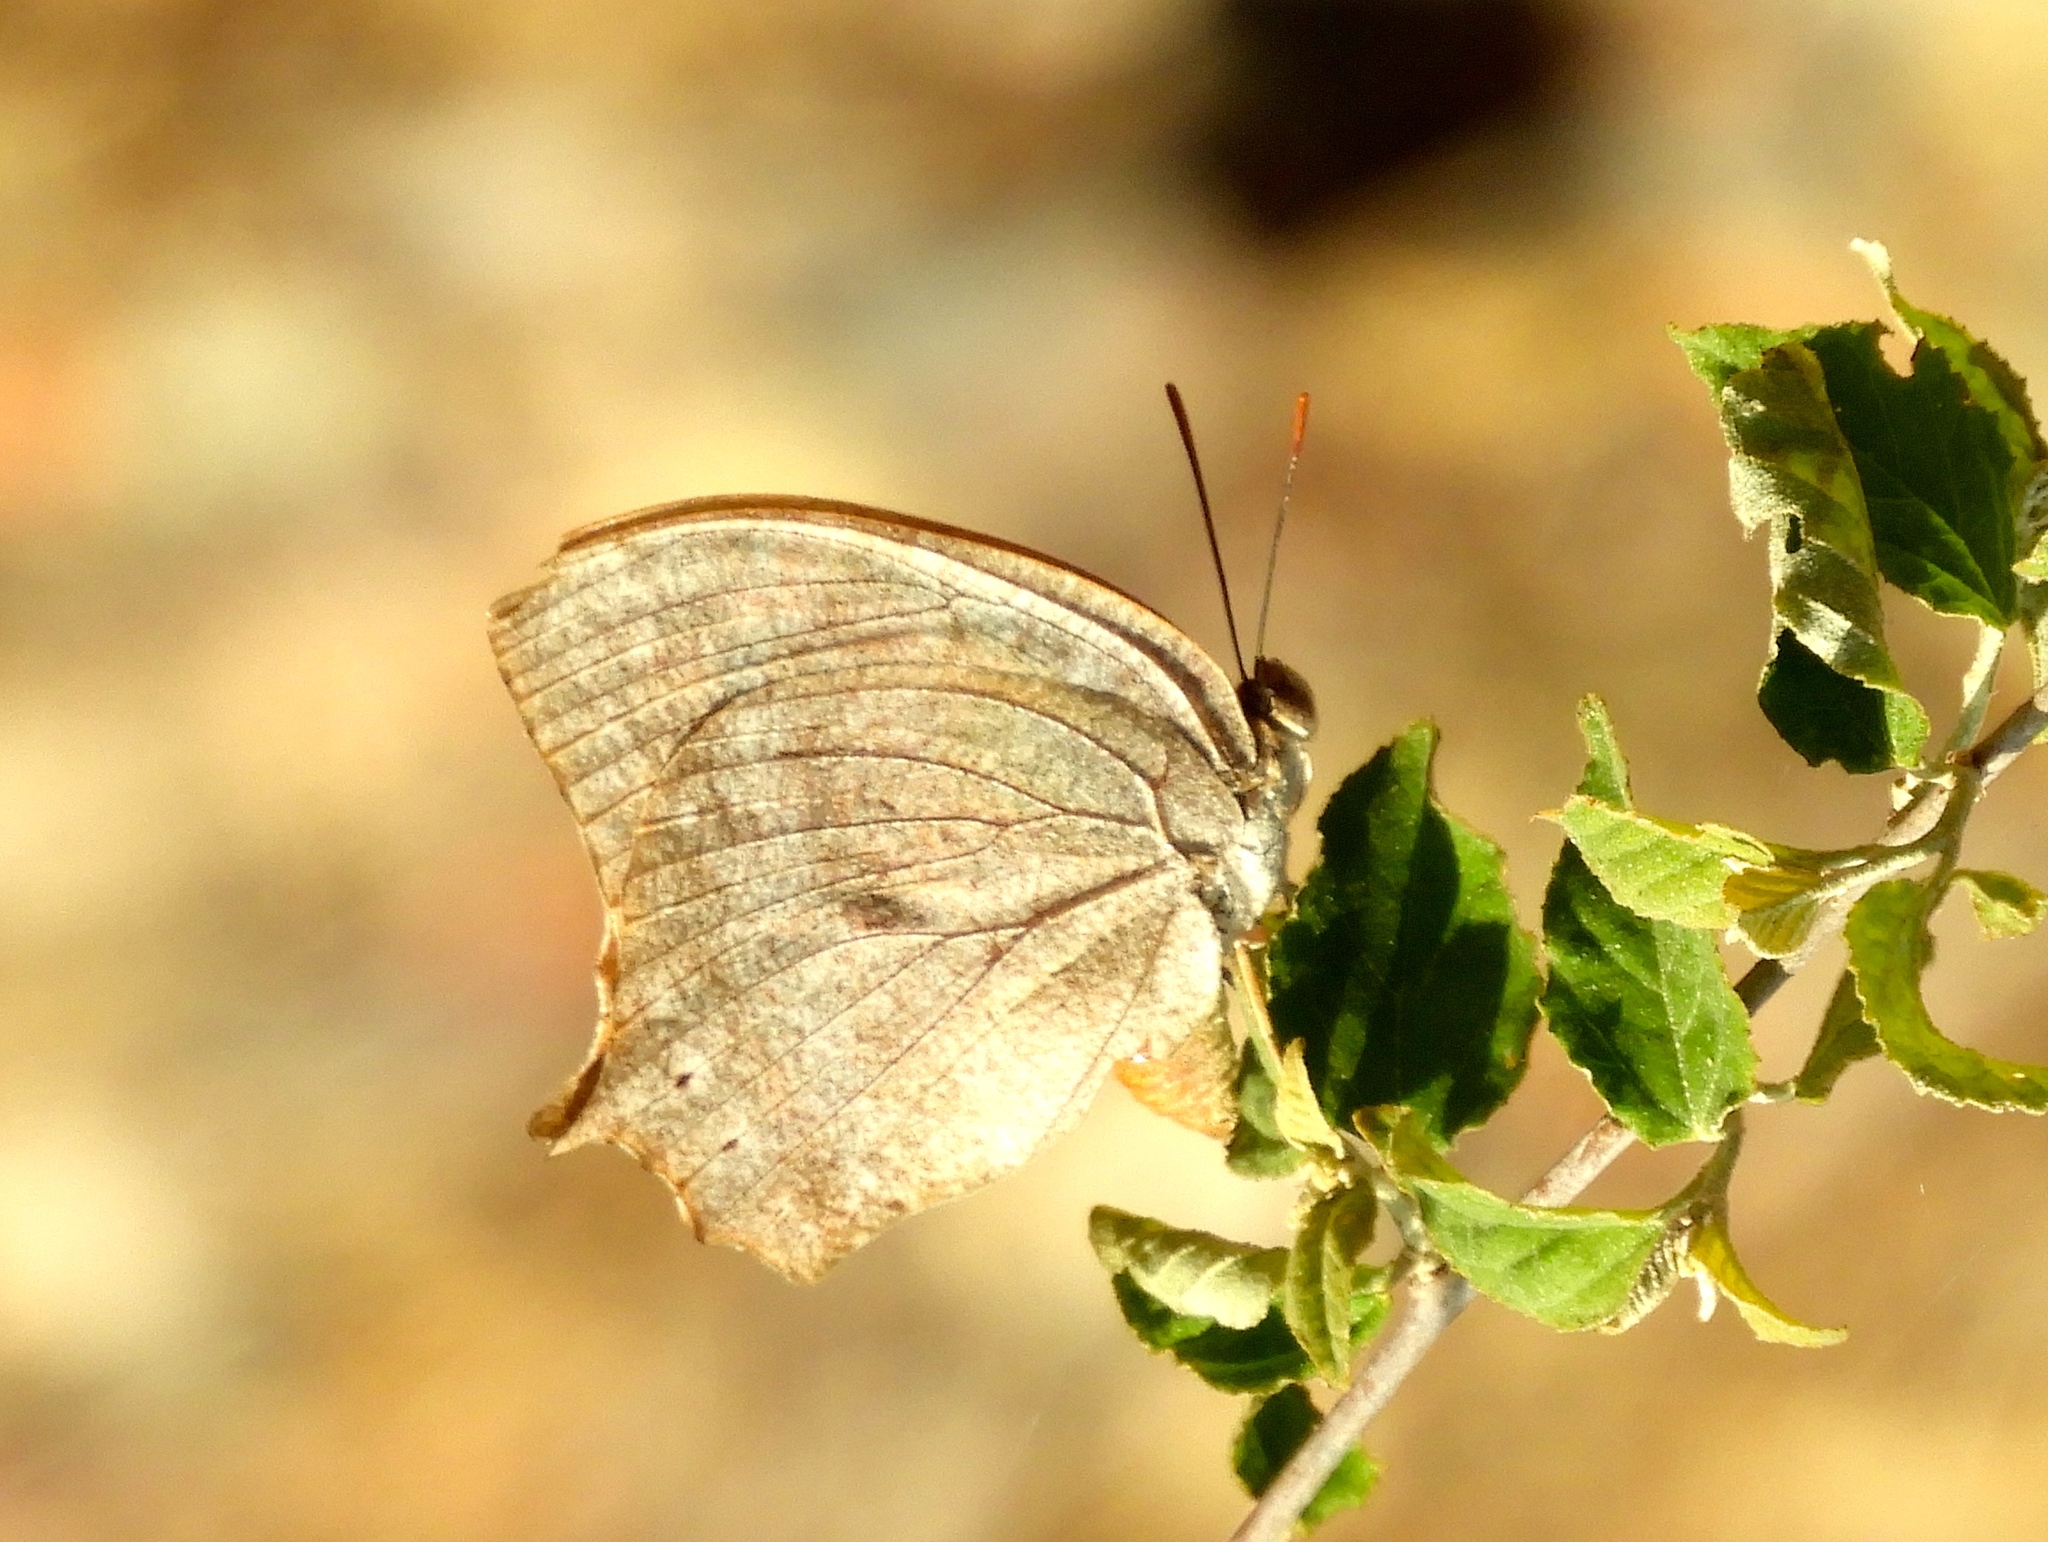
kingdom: Animalia
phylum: Arthropoda
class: Insecta
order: Lepidoptera
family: Nymphalidae
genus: Anaea
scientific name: Anaea
